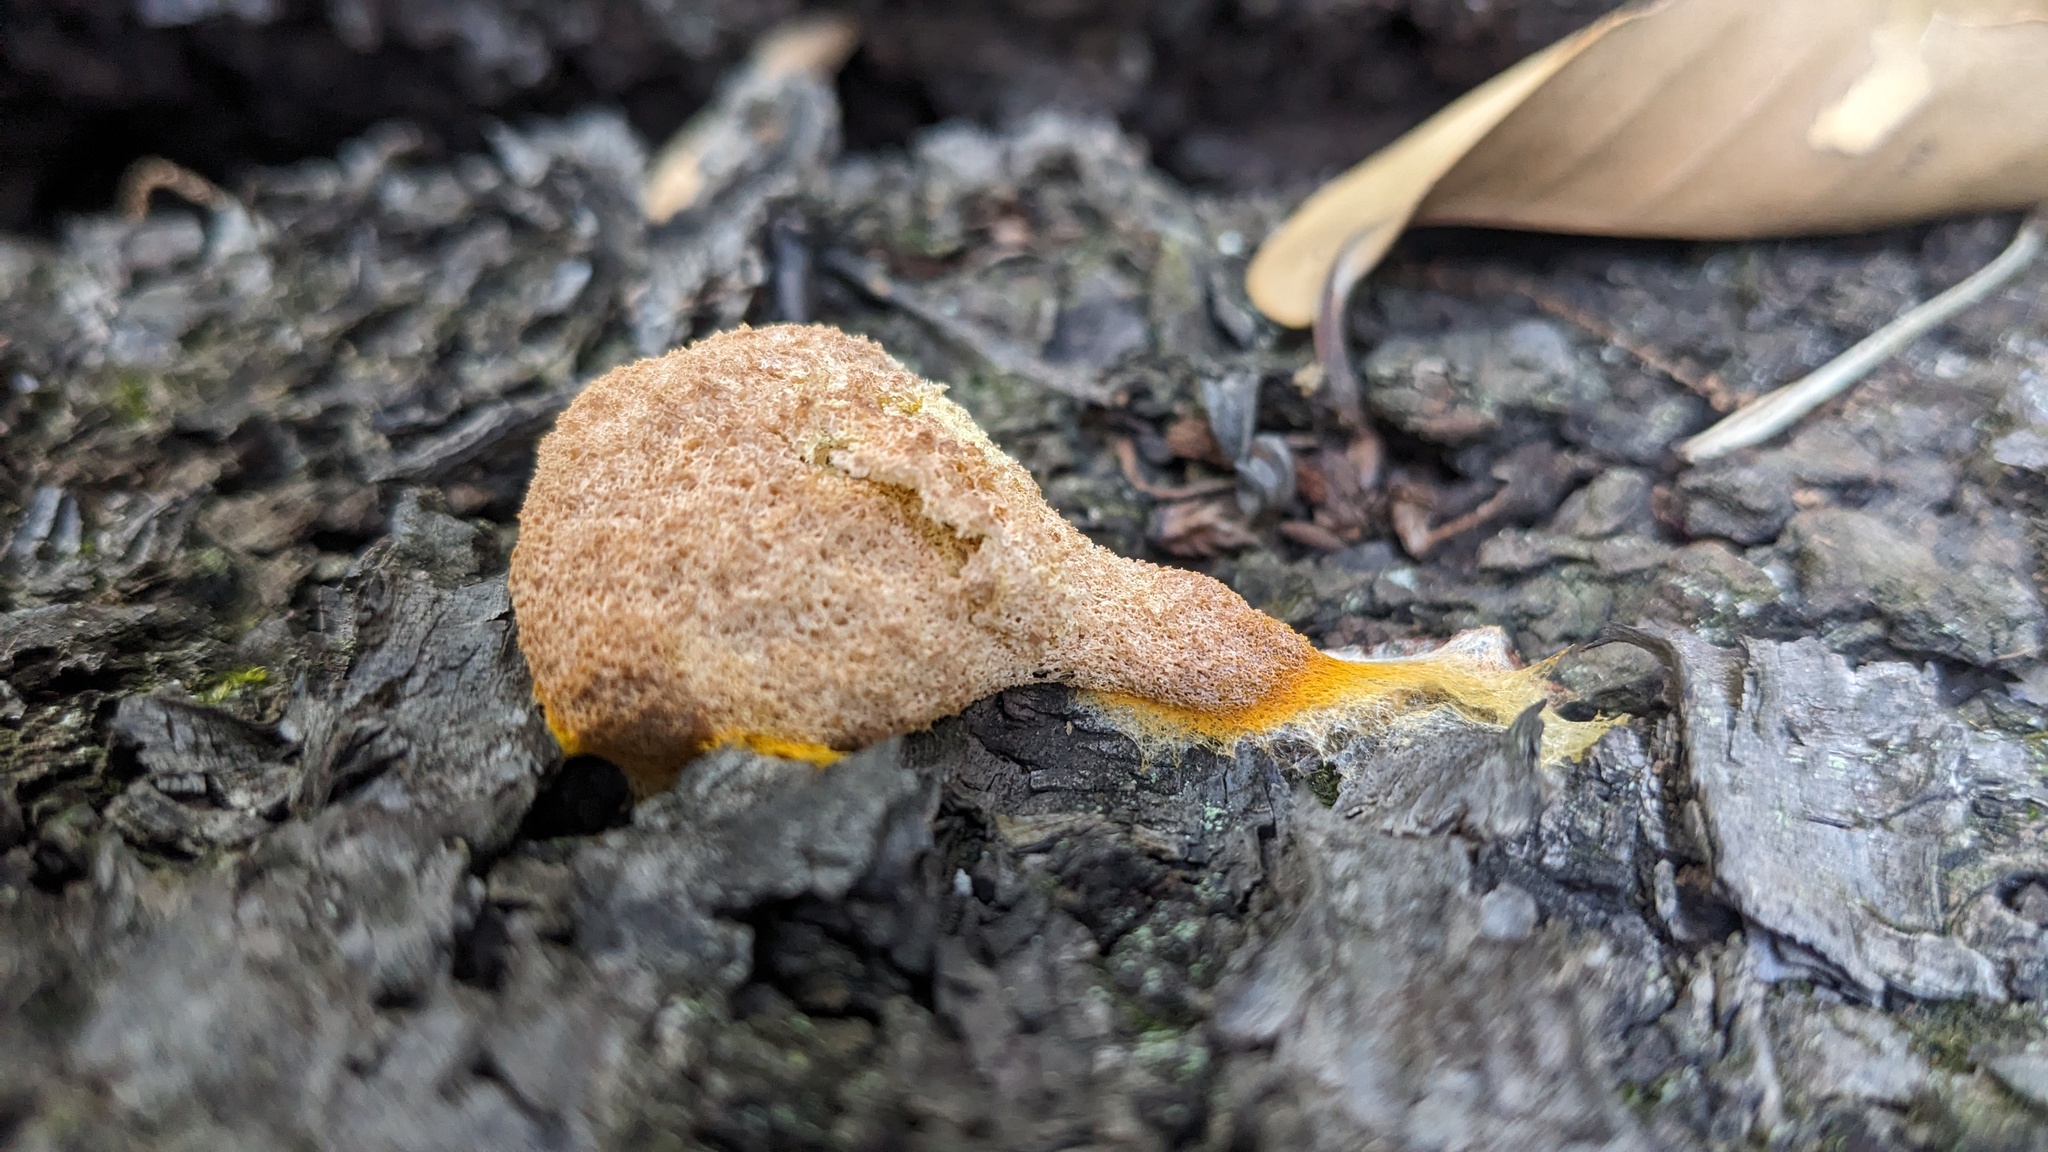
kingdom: Protozoa
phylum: Mycetozoa
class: Myxomycetes
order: Physarales
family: Physaraceae
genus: Fuligo
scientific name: Fuligo septica
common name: Dog vomit slime mold
